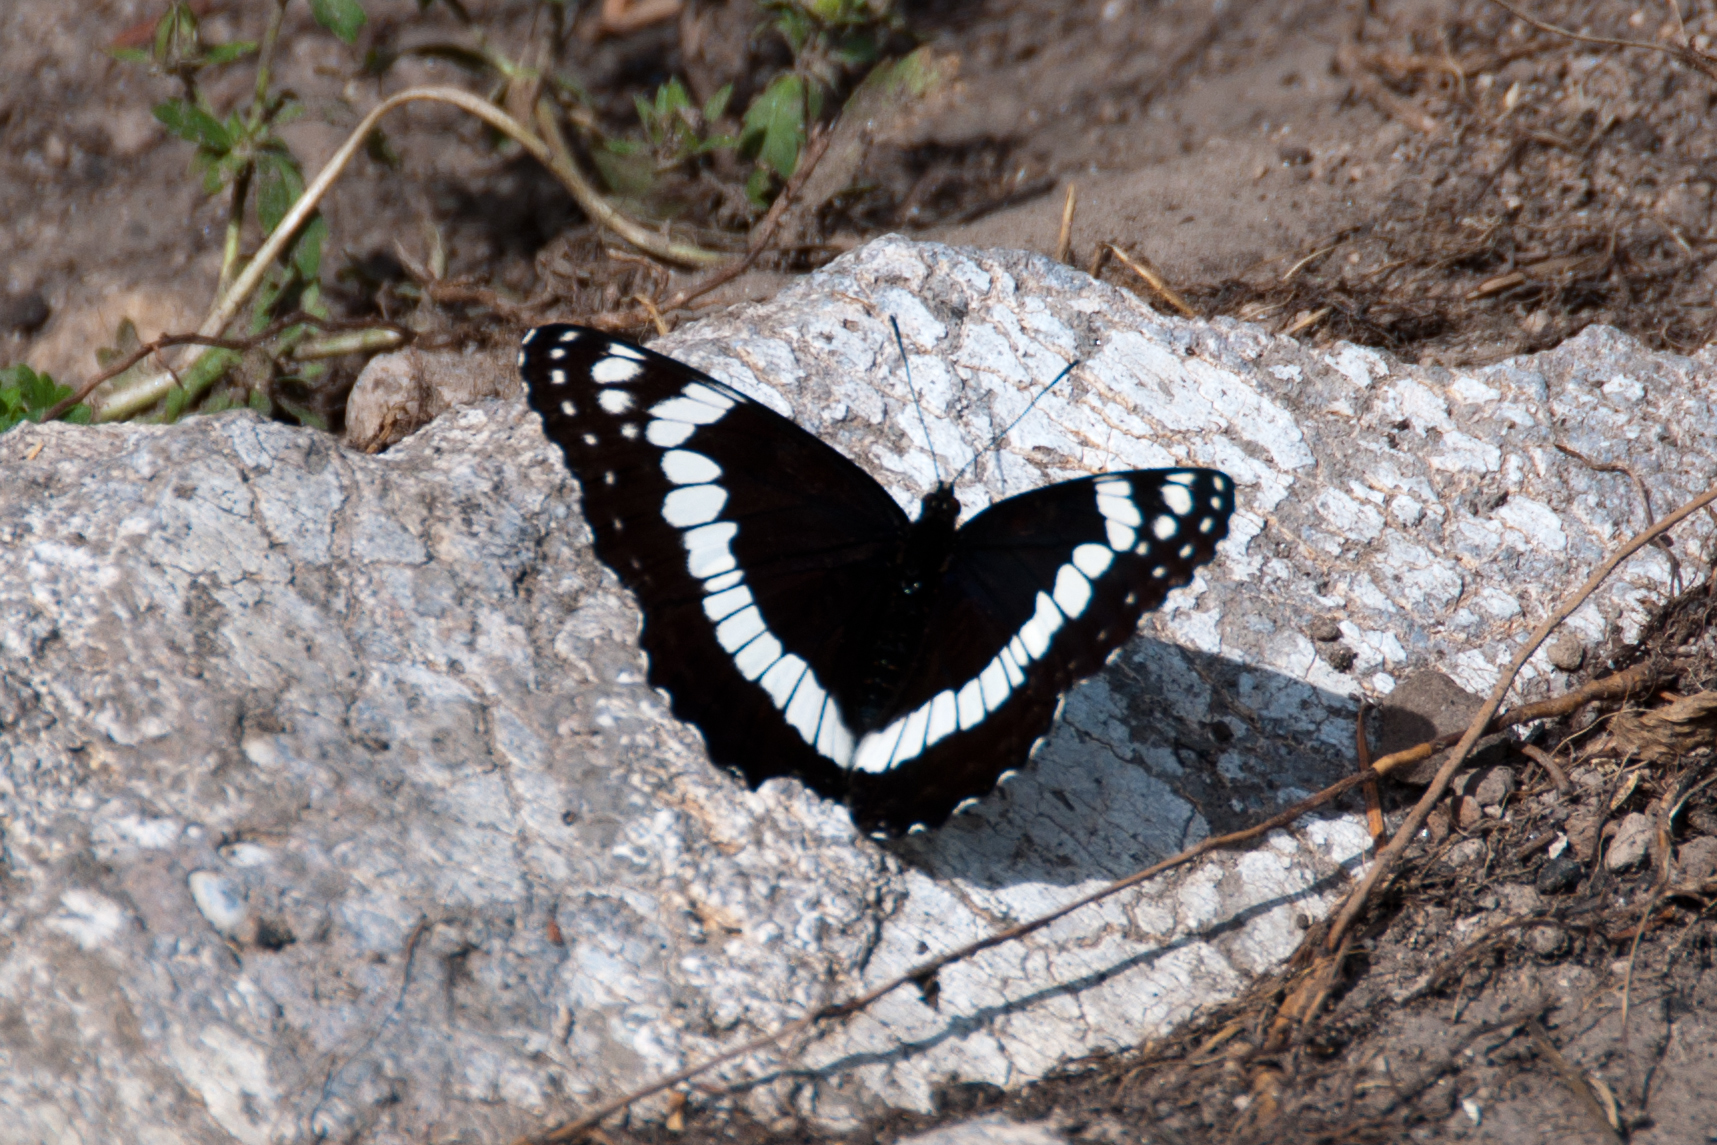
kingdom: Animalia
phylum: Arthropoda
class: Insecta
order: Lepidoptera
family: Nymphalidae
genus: Limenitis
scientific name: Limenitis weidemeyerii
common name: Weidemeyer's admiral
